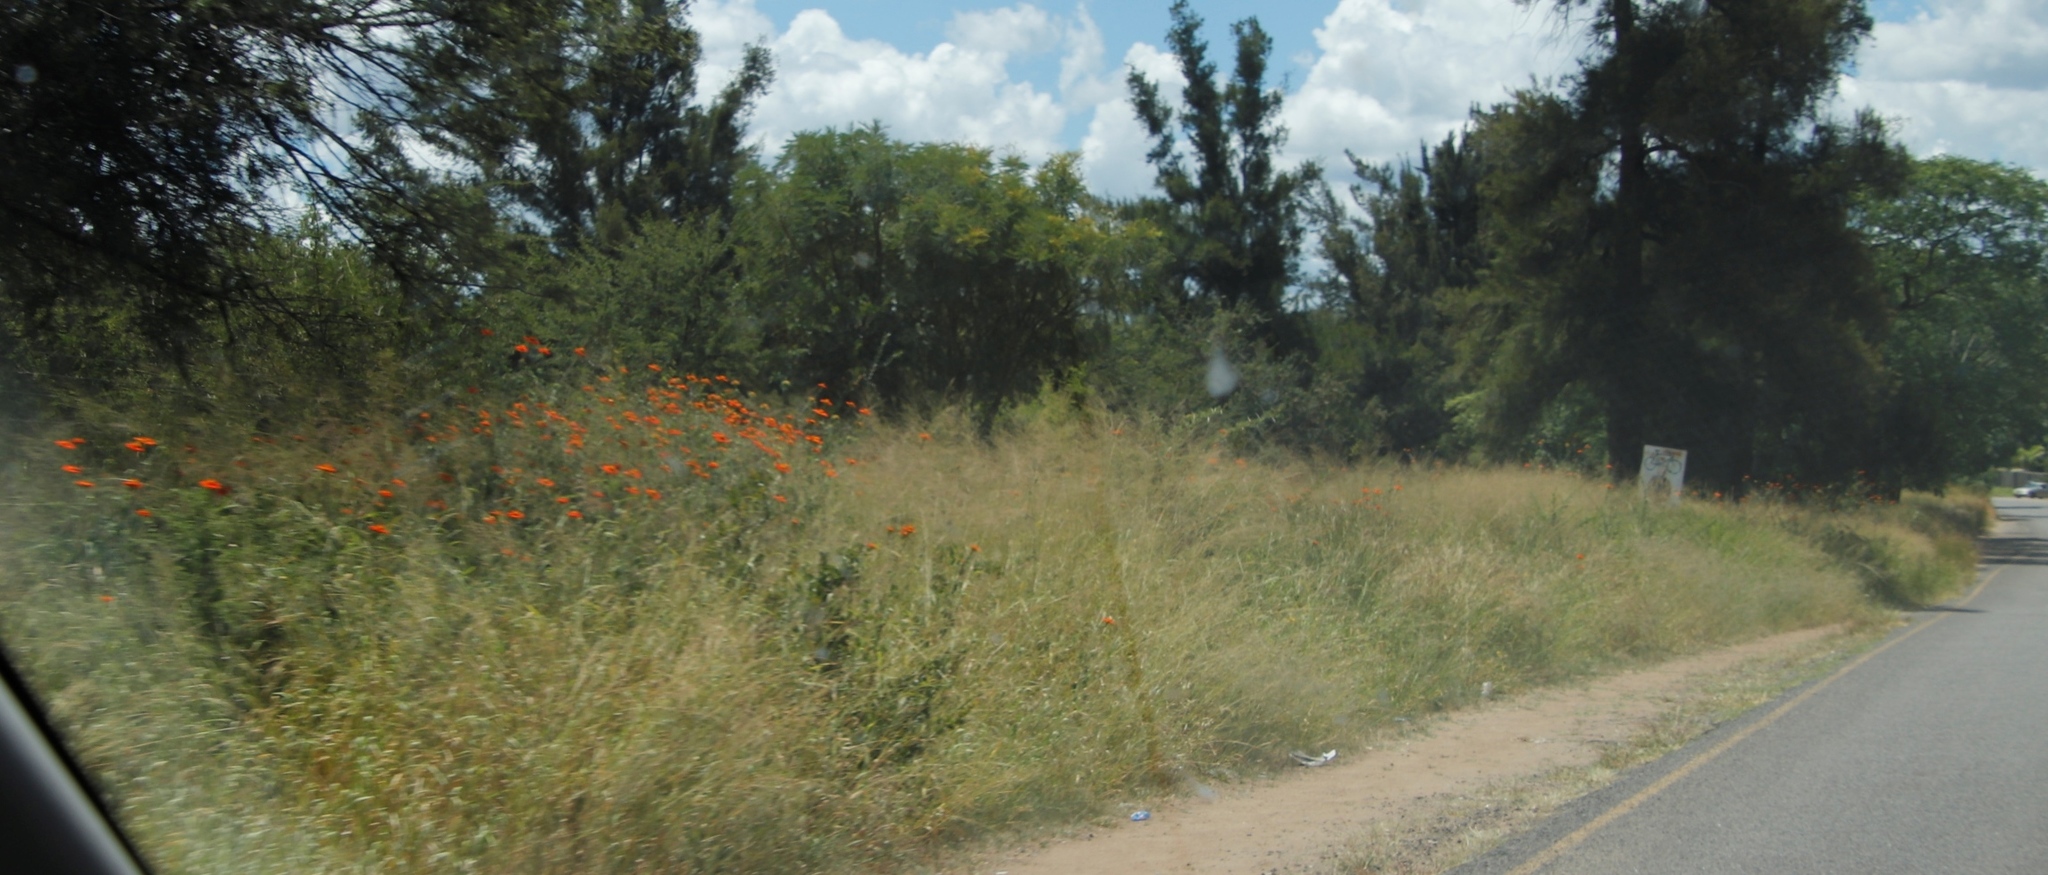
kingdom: Plantae
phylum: Tracheophyta
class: Magnoliopsida
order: Asterales
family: Asteraceae
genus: Tithonia
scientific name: Tithonia rotundifolia
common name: Sunflower
